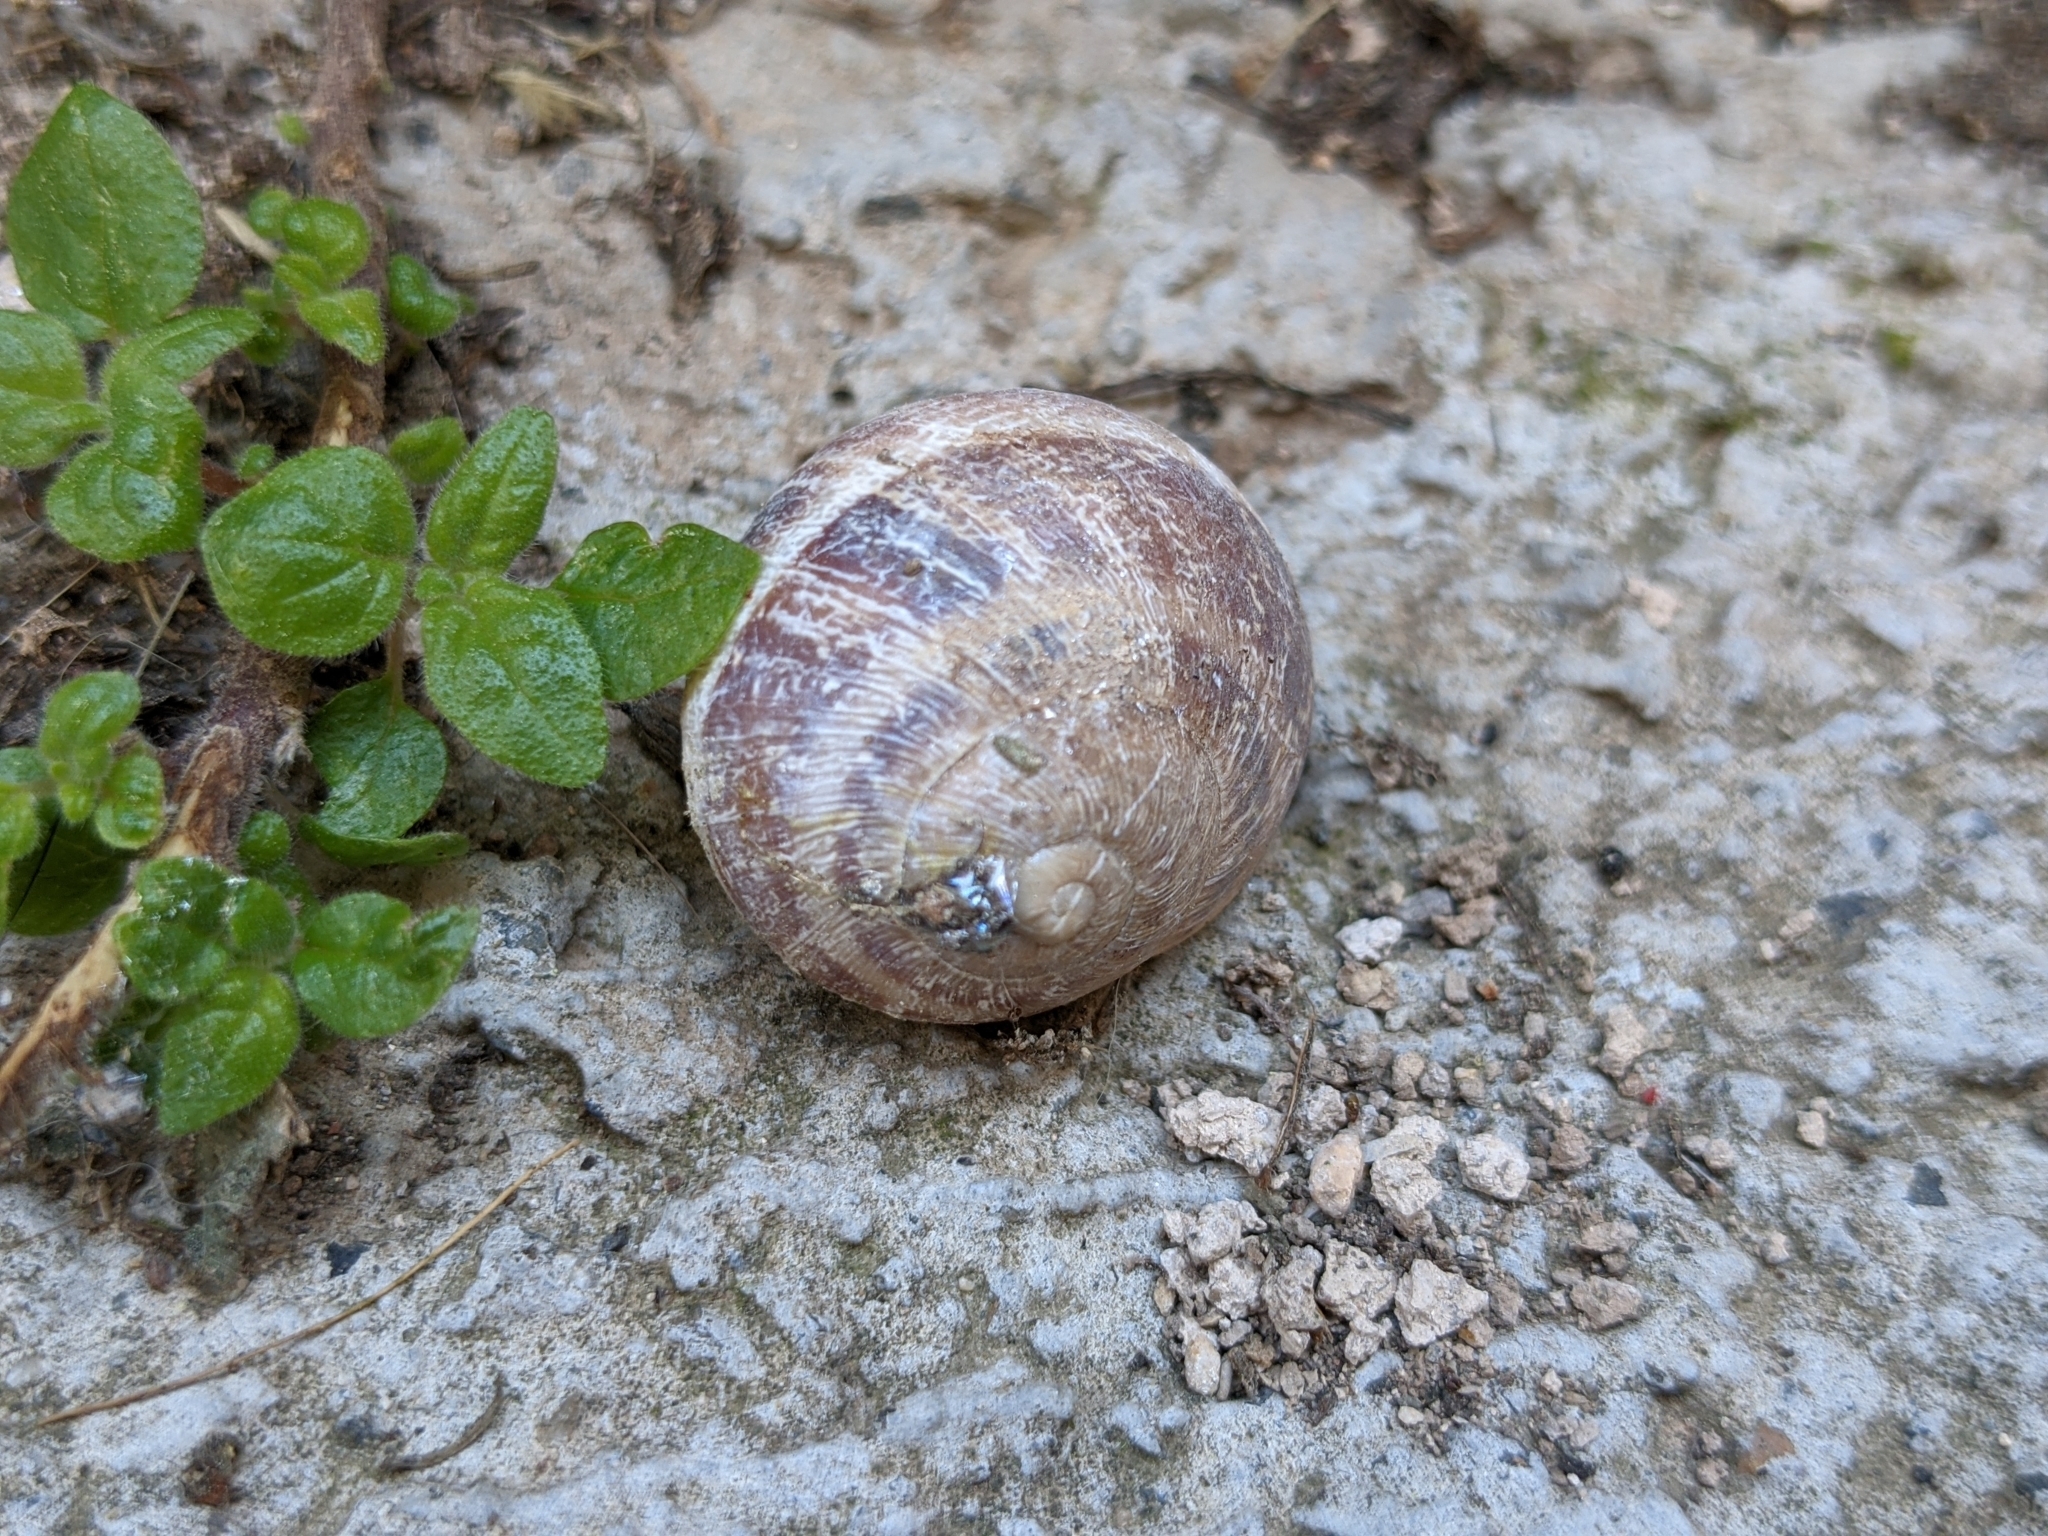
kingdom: Animalia
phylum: Mollusca
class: Gastropoda
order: Stylommatophora
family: Helicidae
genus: Cornu
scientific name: Cornu aspersum
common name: Brown garden snail
